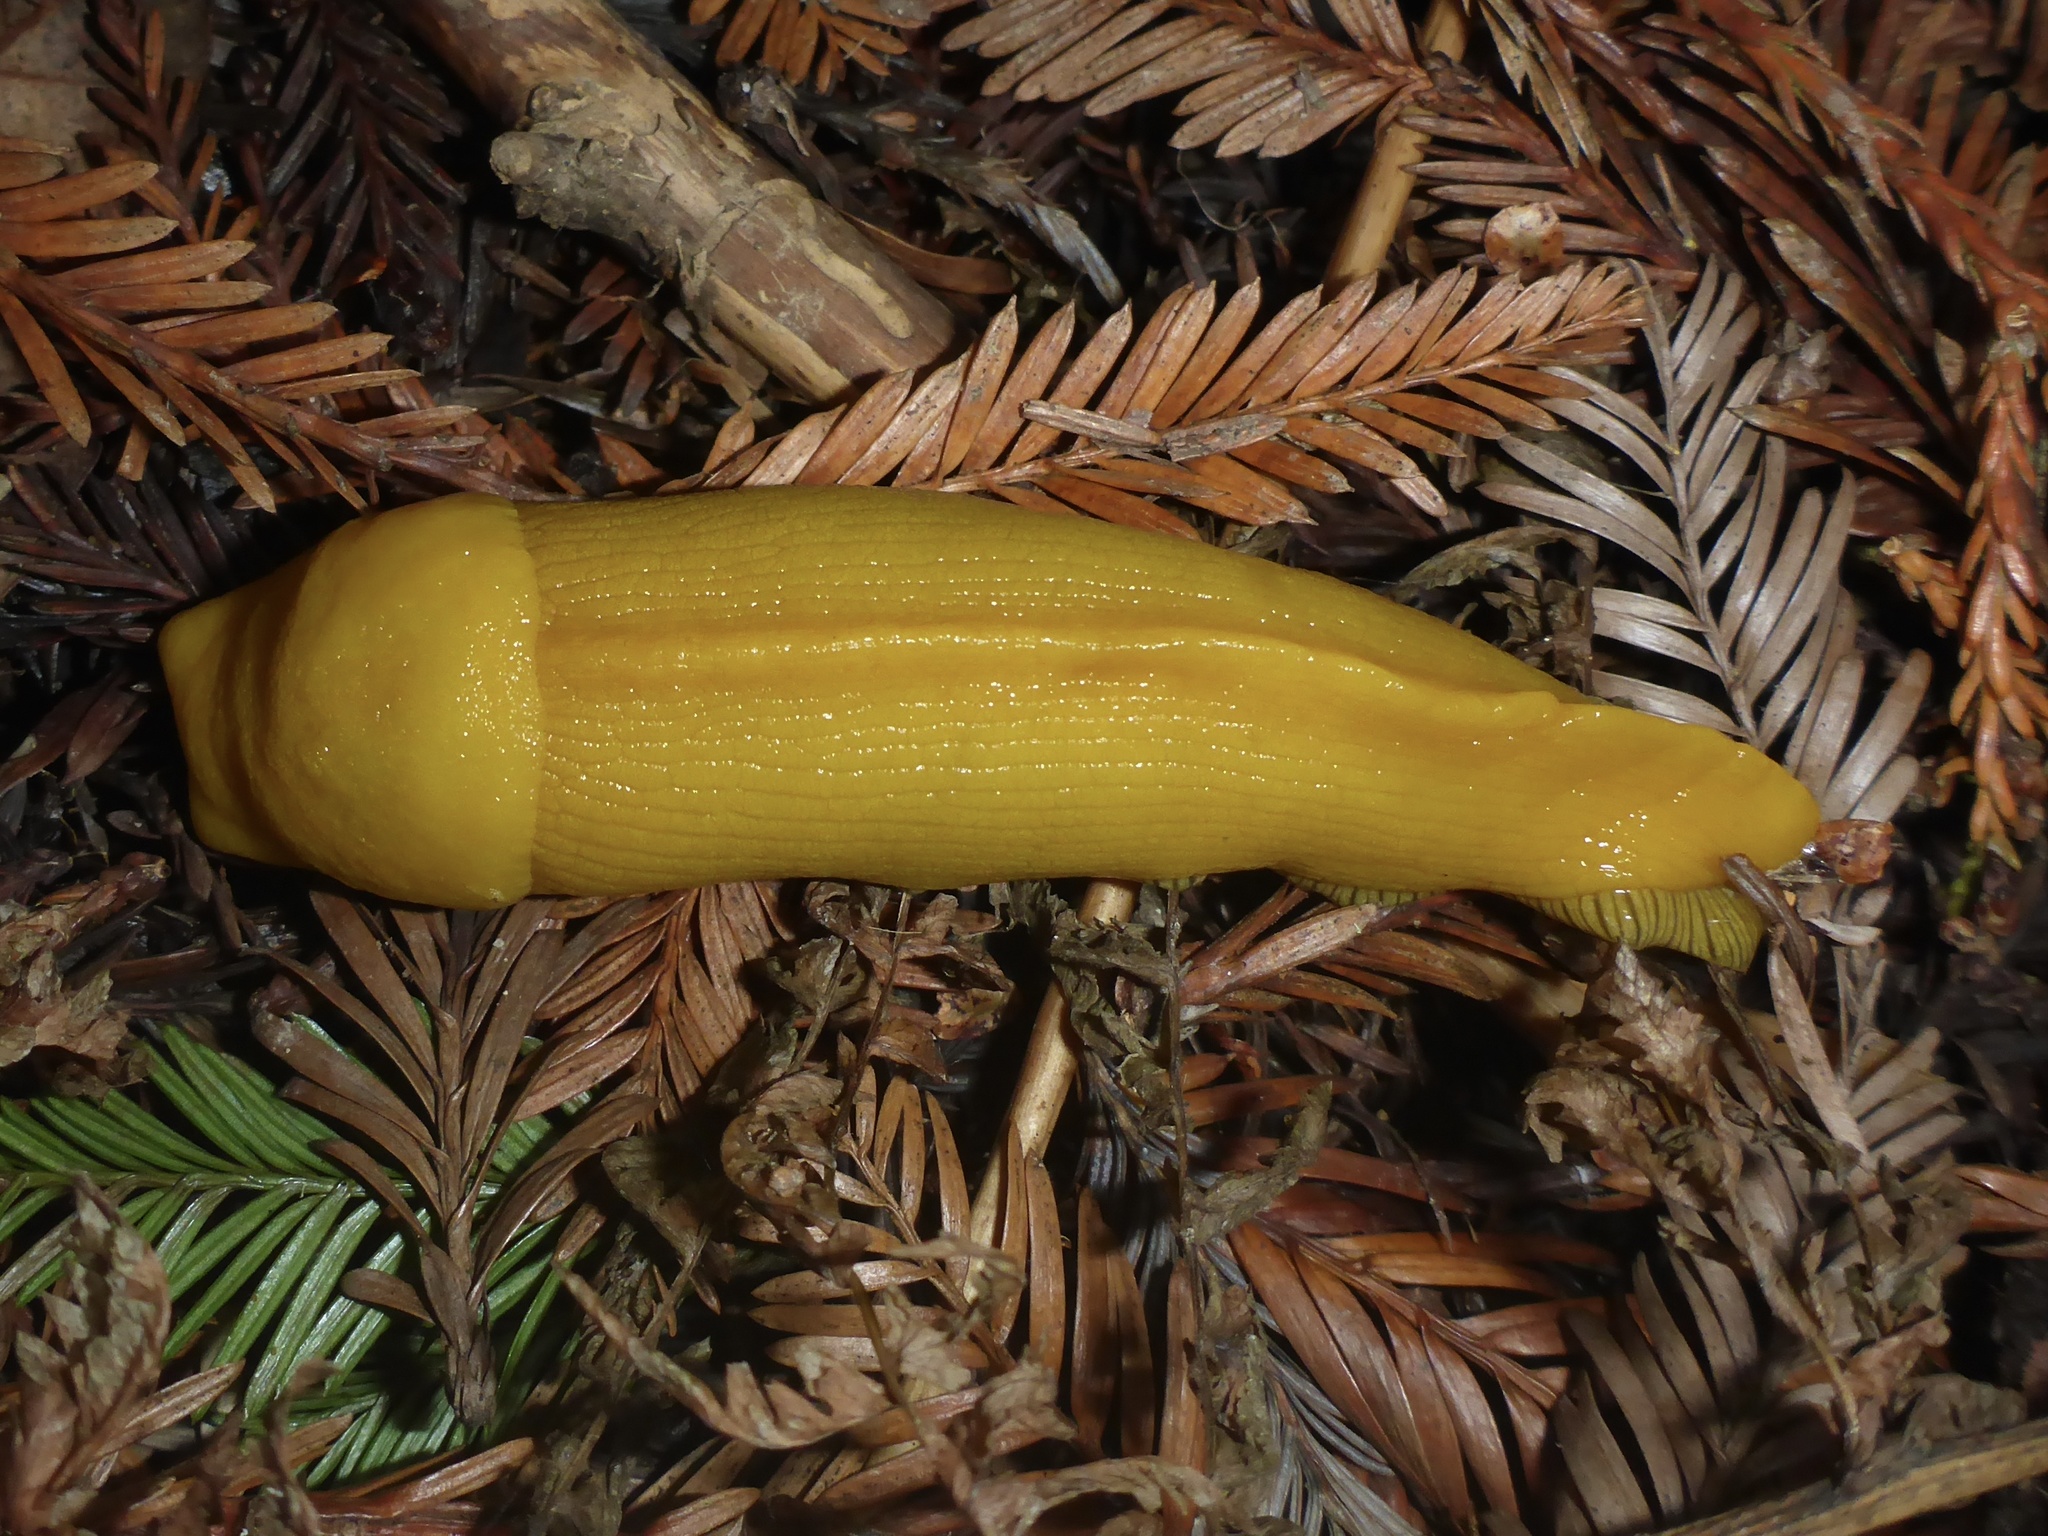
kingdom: Animalia
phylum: Mollusca
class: Gastropoda
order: Stylommatophora
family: Ariolimacidae
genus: Ariolimax
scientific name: Ariolimax californicus
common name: California banana slug
